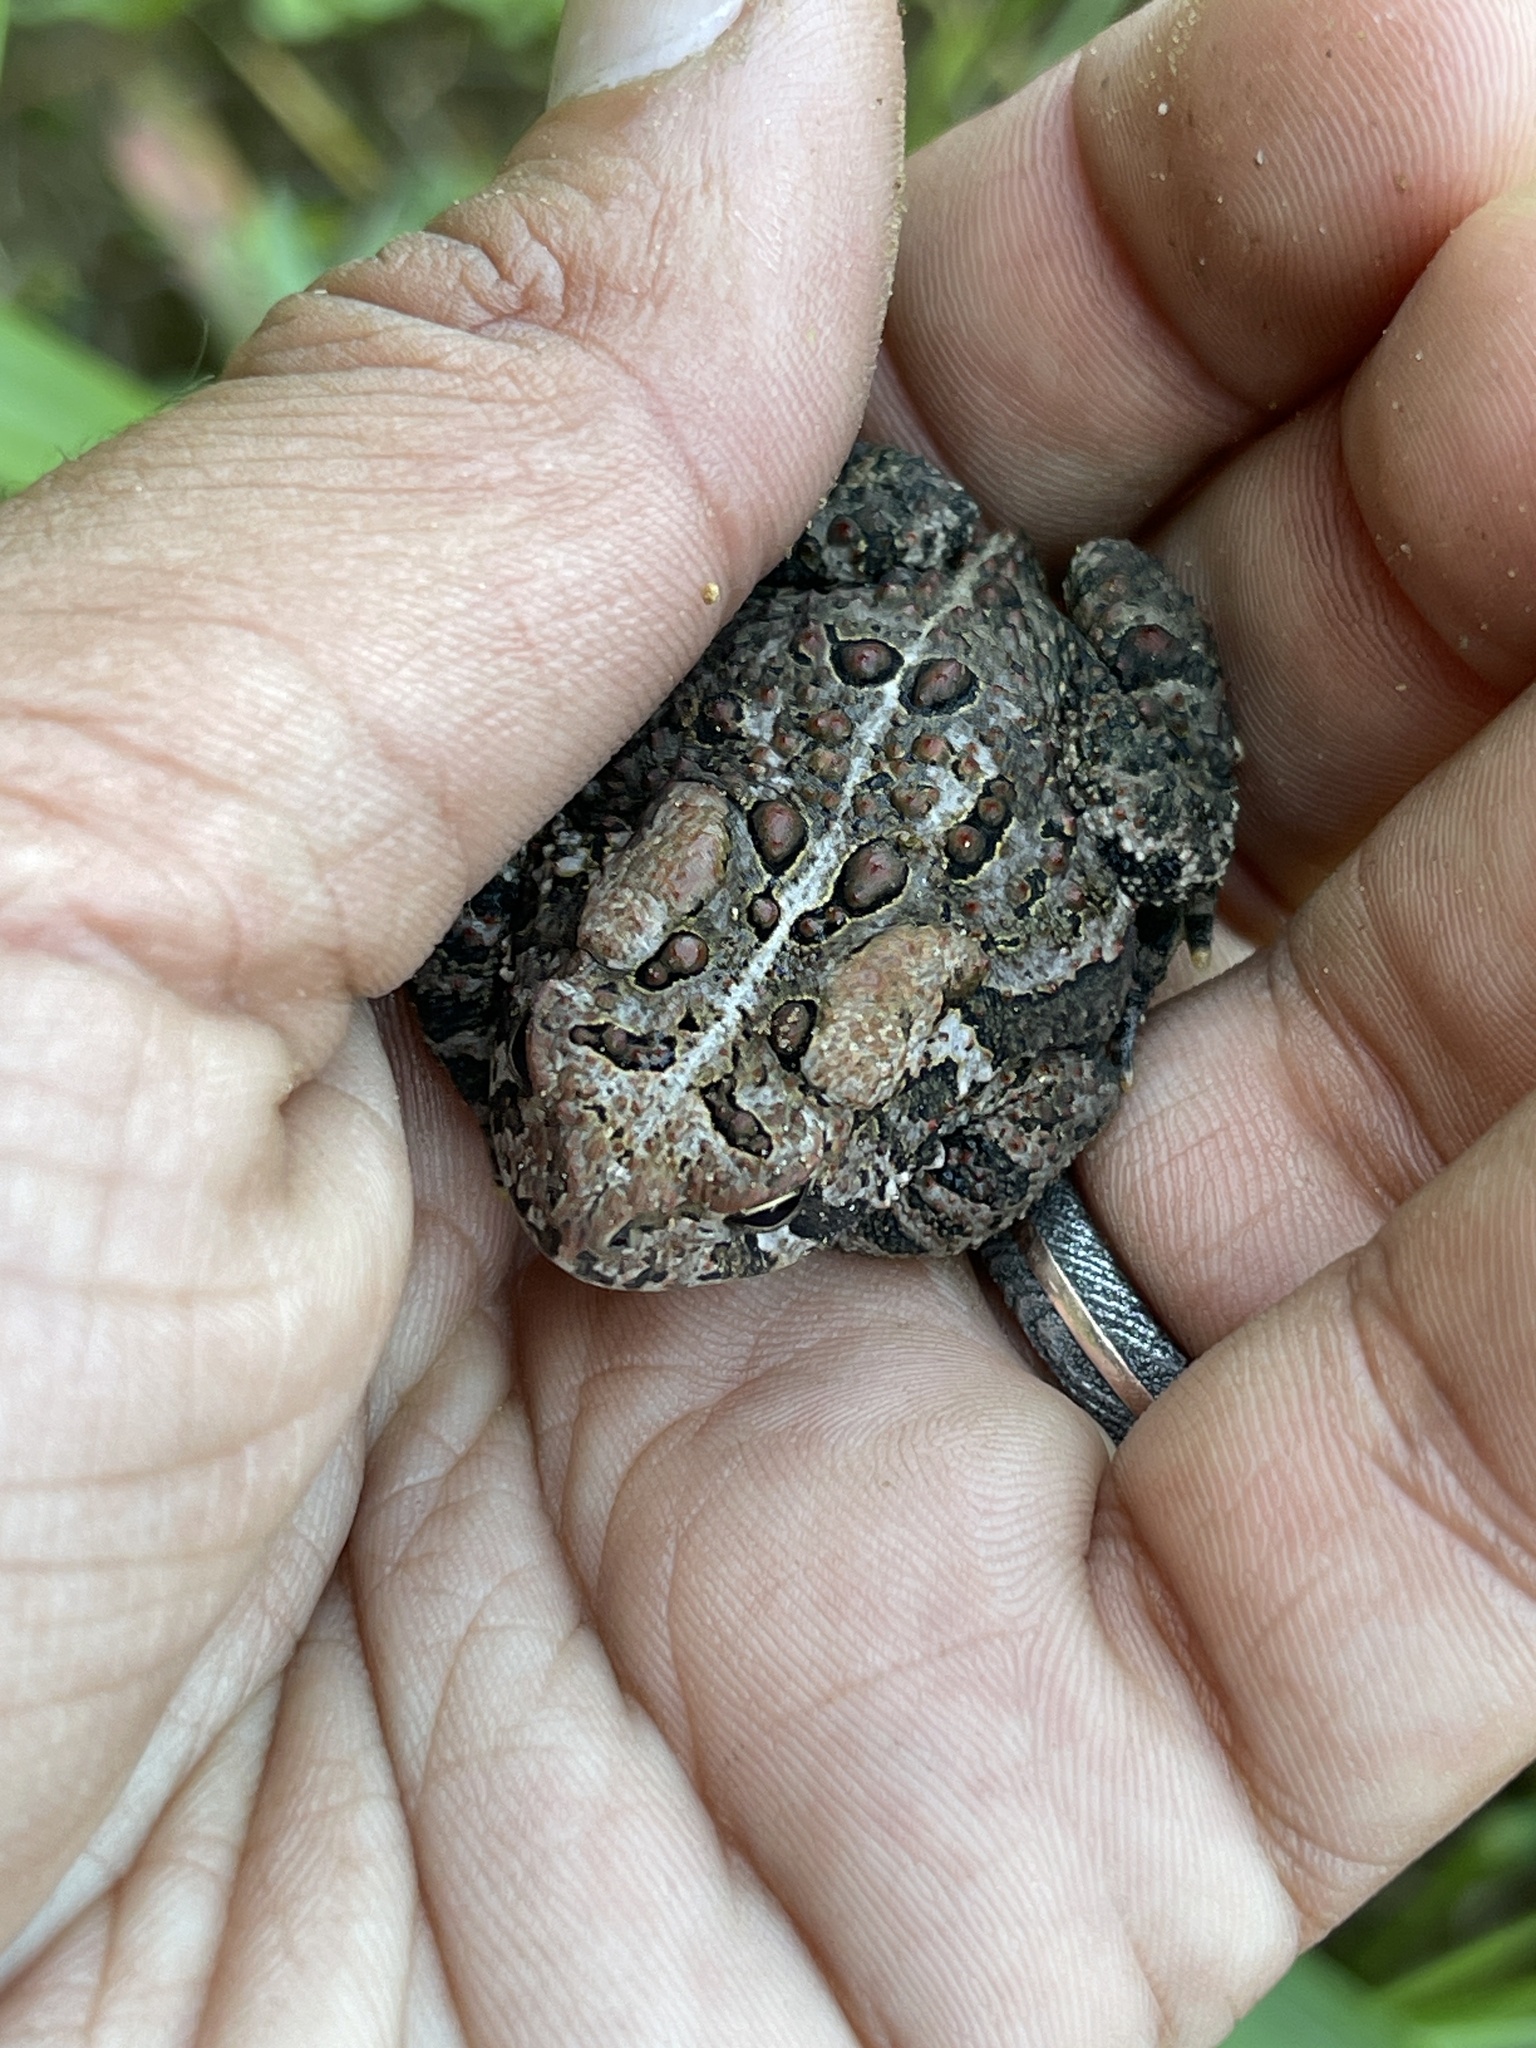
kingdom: Animalia
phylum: Chordata
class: Amphibia
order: Anura
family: Bufonidae
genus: Anaxyrus
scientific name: Anaxyrus americanus
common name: American toad
